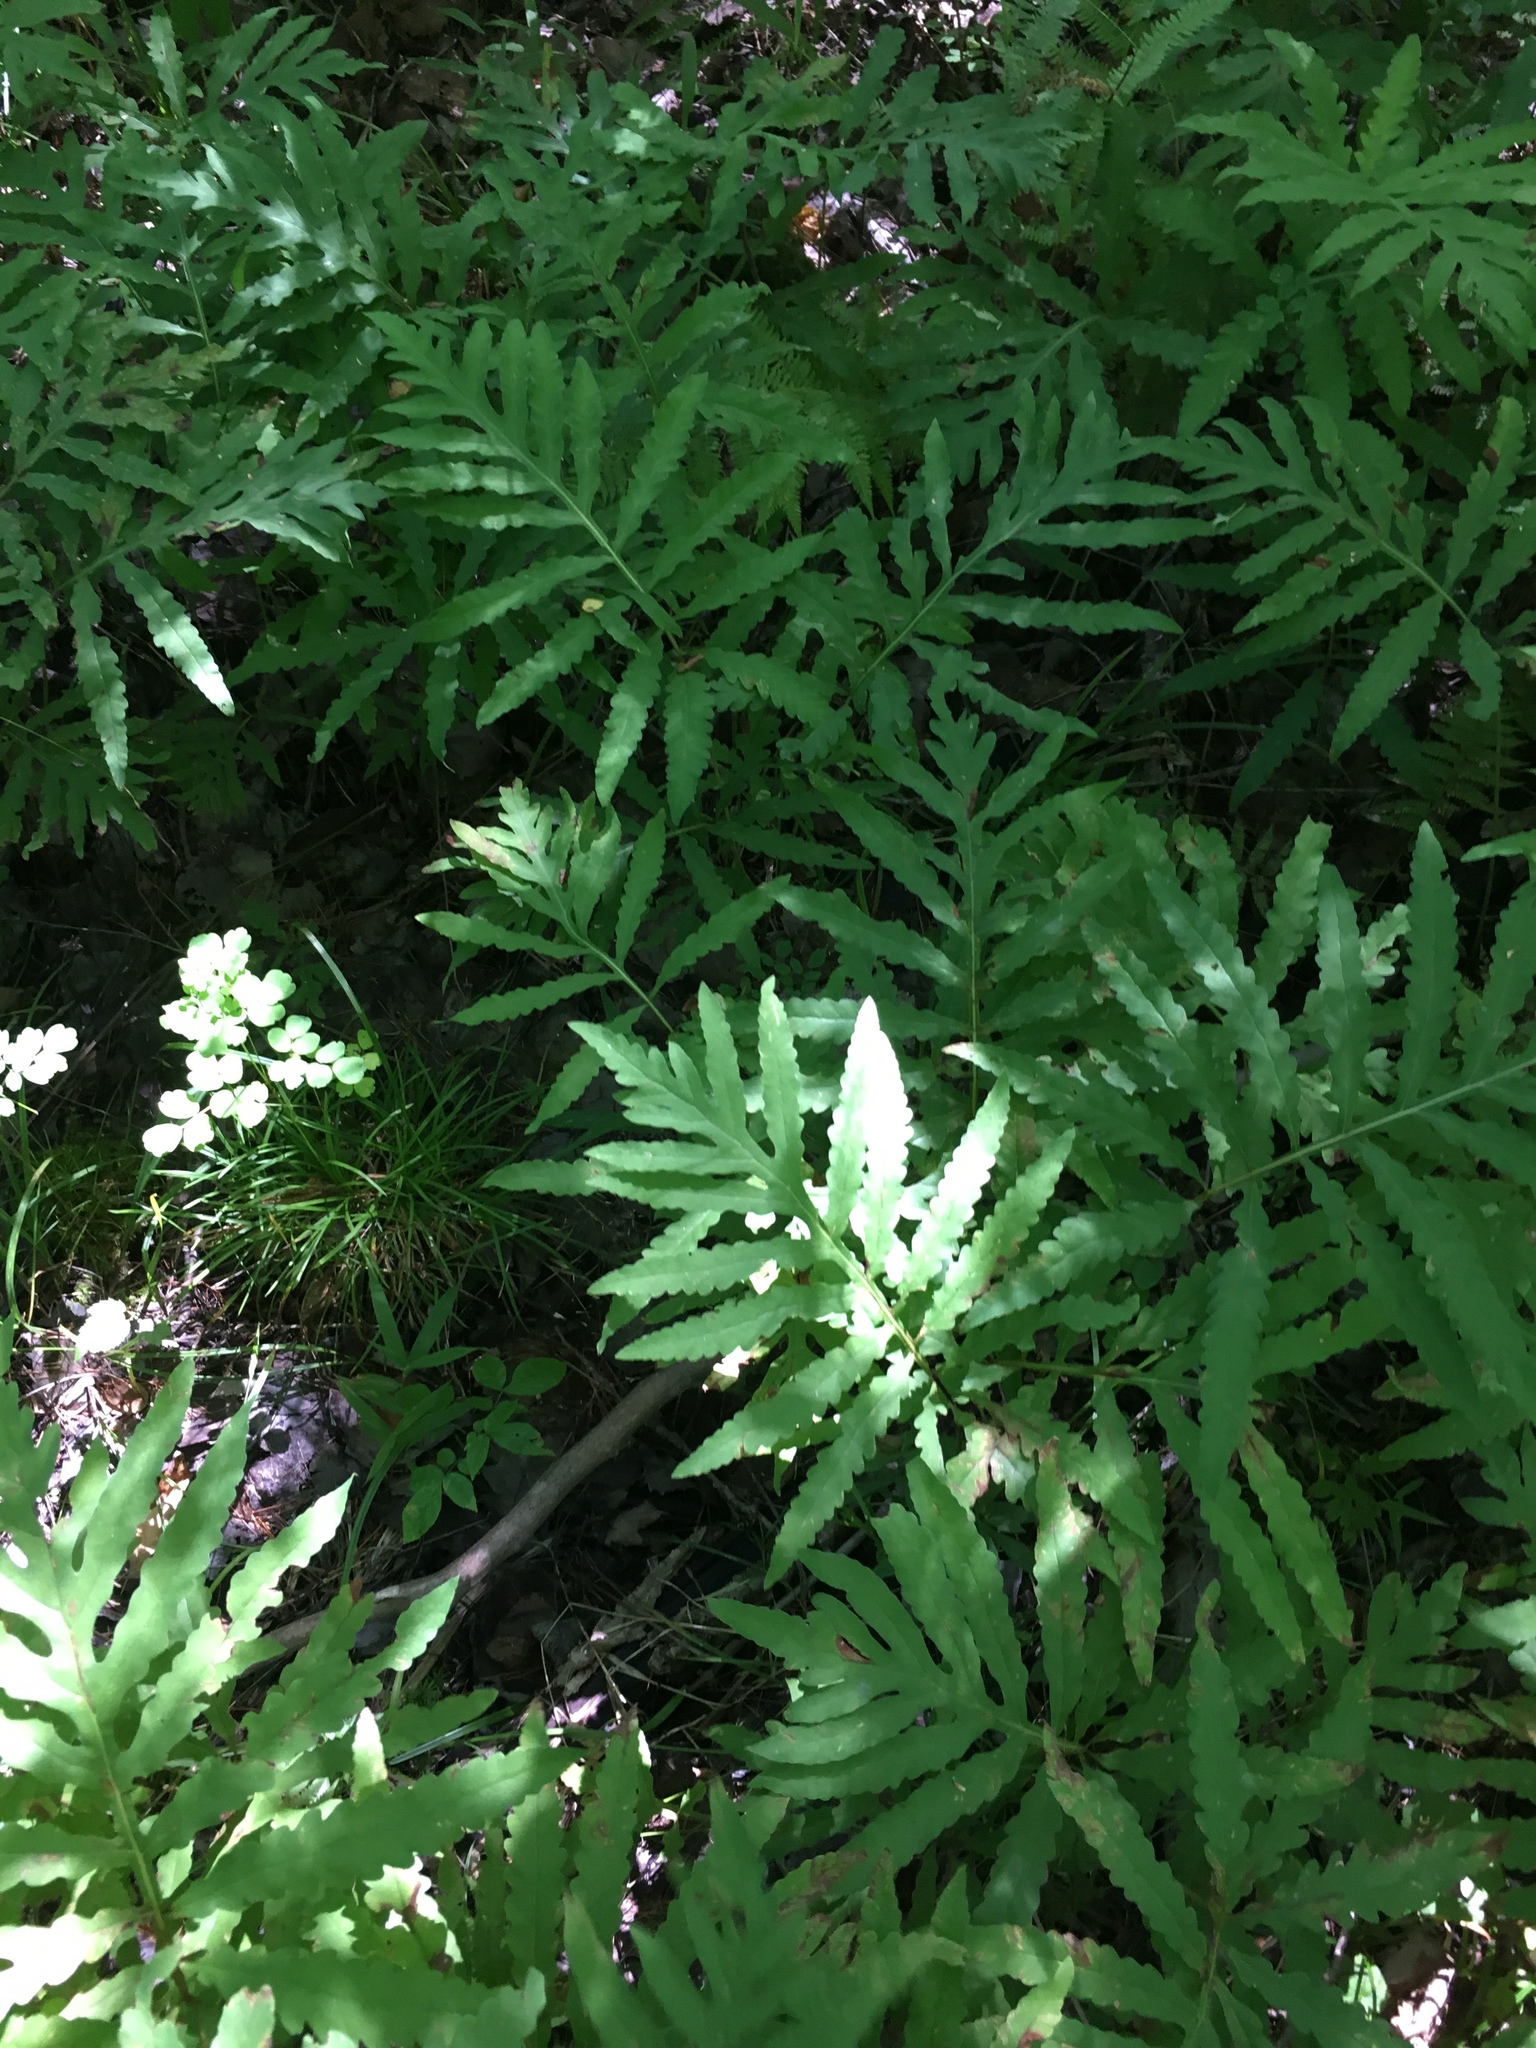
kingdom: Plantae
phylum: Tracheophyta
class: Polypodiopsida
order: Polypodiales
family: Onocleaceae
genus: Onoclea
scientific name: Onoclea sensibilis
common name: Sensitive fern
